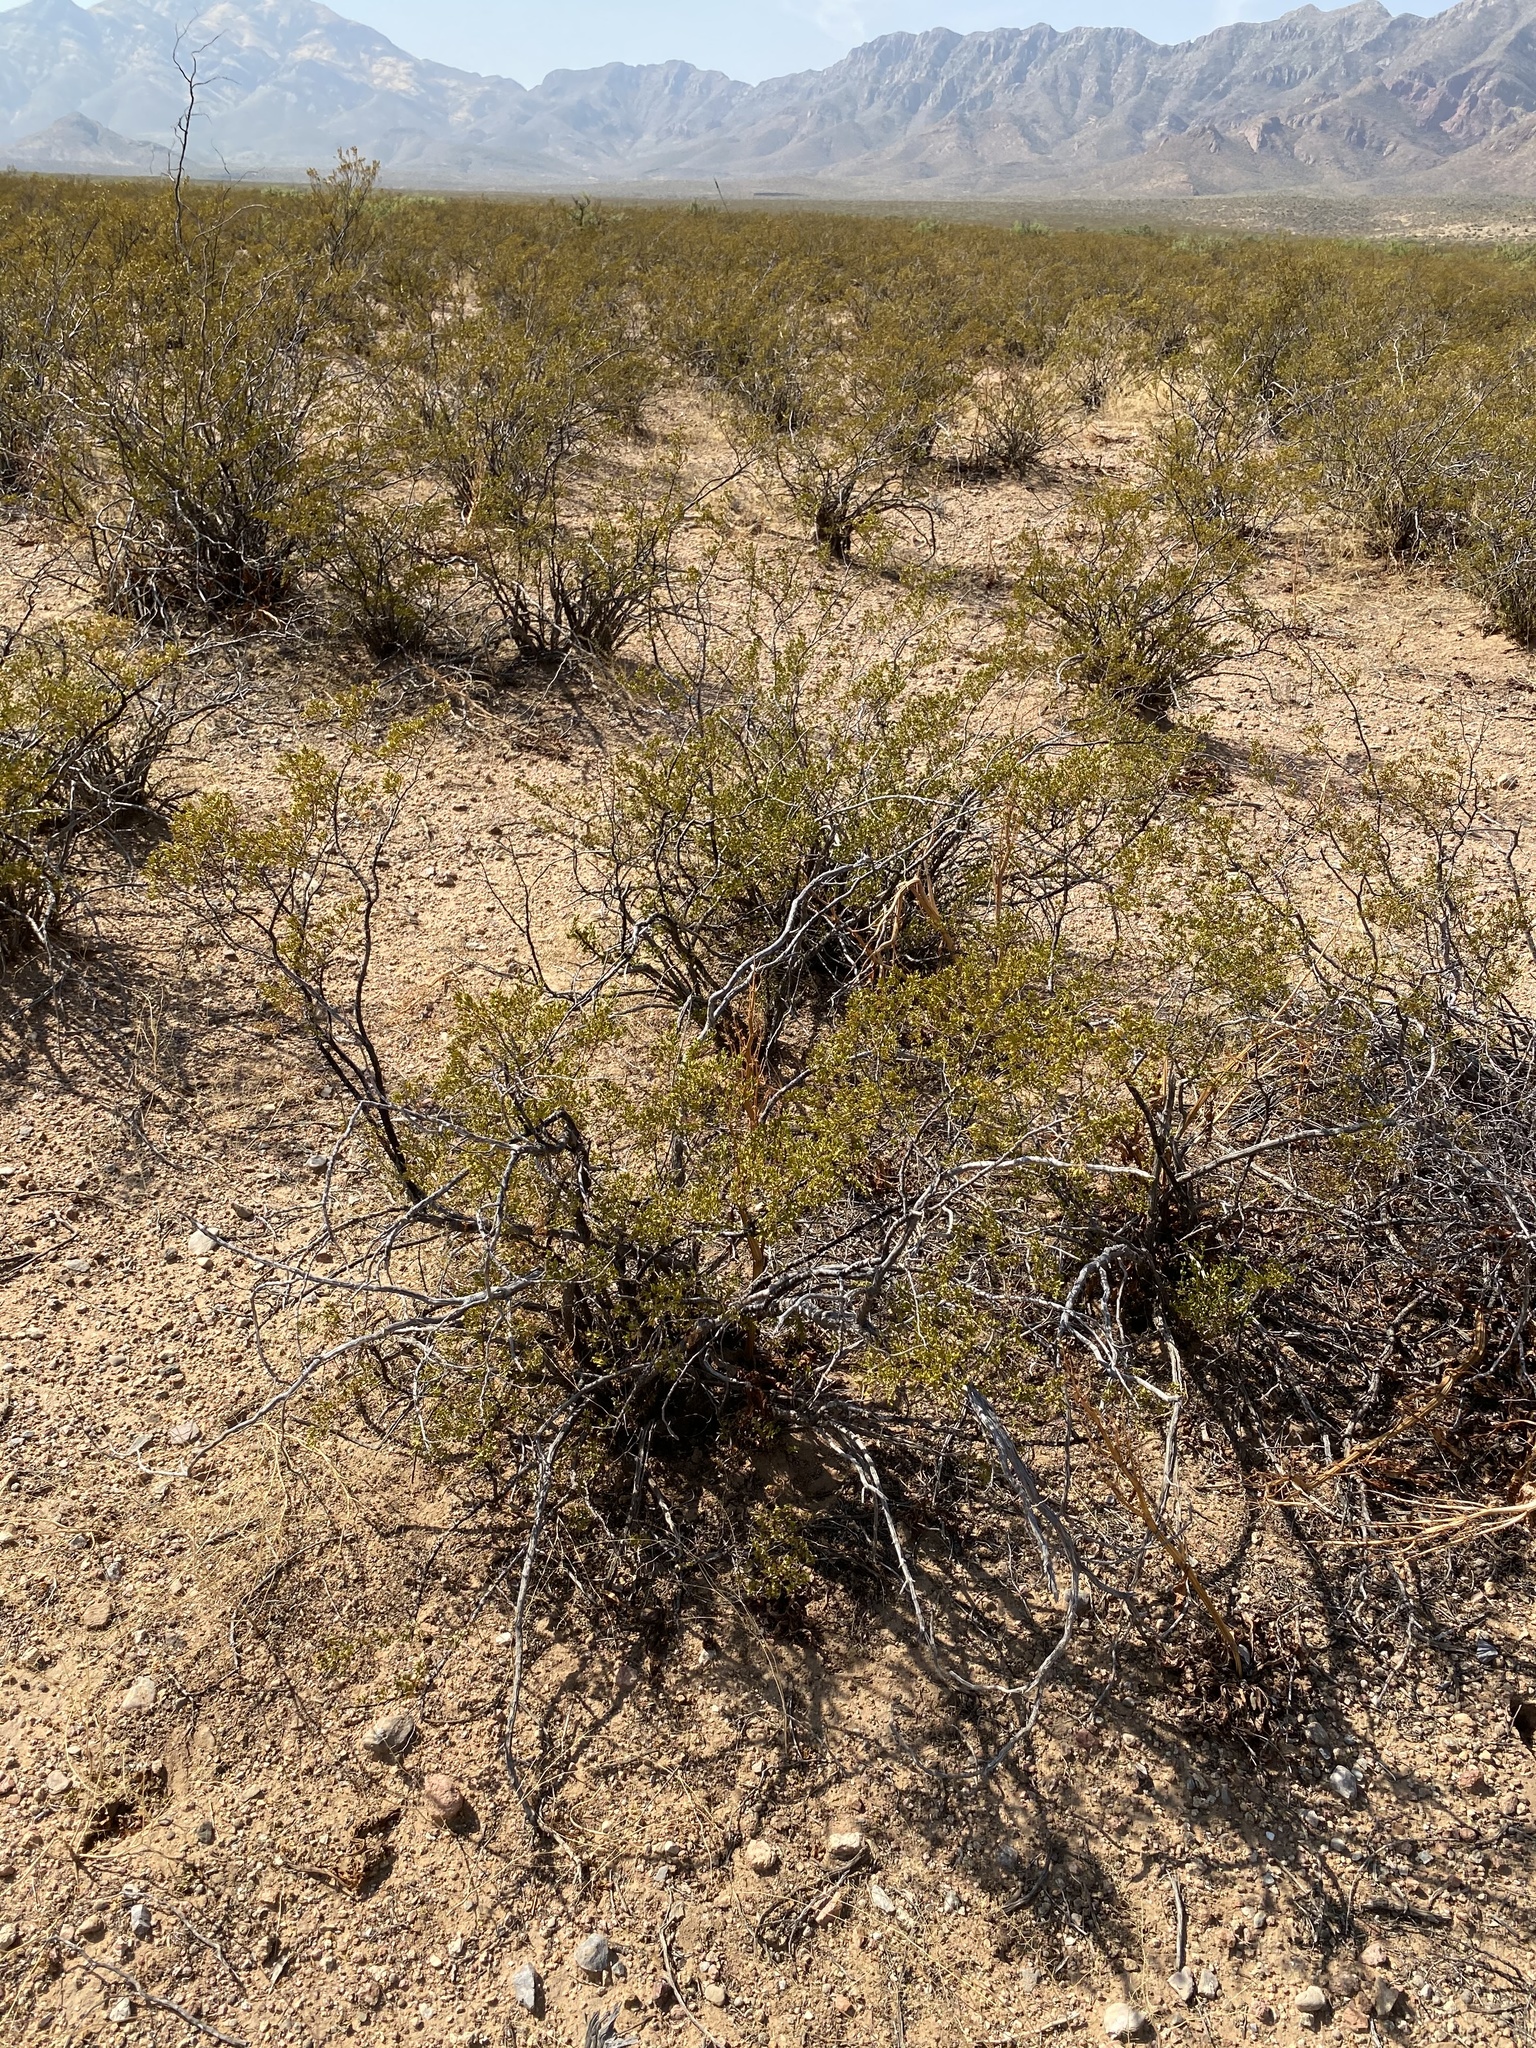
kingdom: Plantae
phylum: Tracheophyta
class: Magnoliopsida
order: Zygophyllales
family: Zygophyllaceae
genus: Larrea
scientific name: Larrea tridentata
